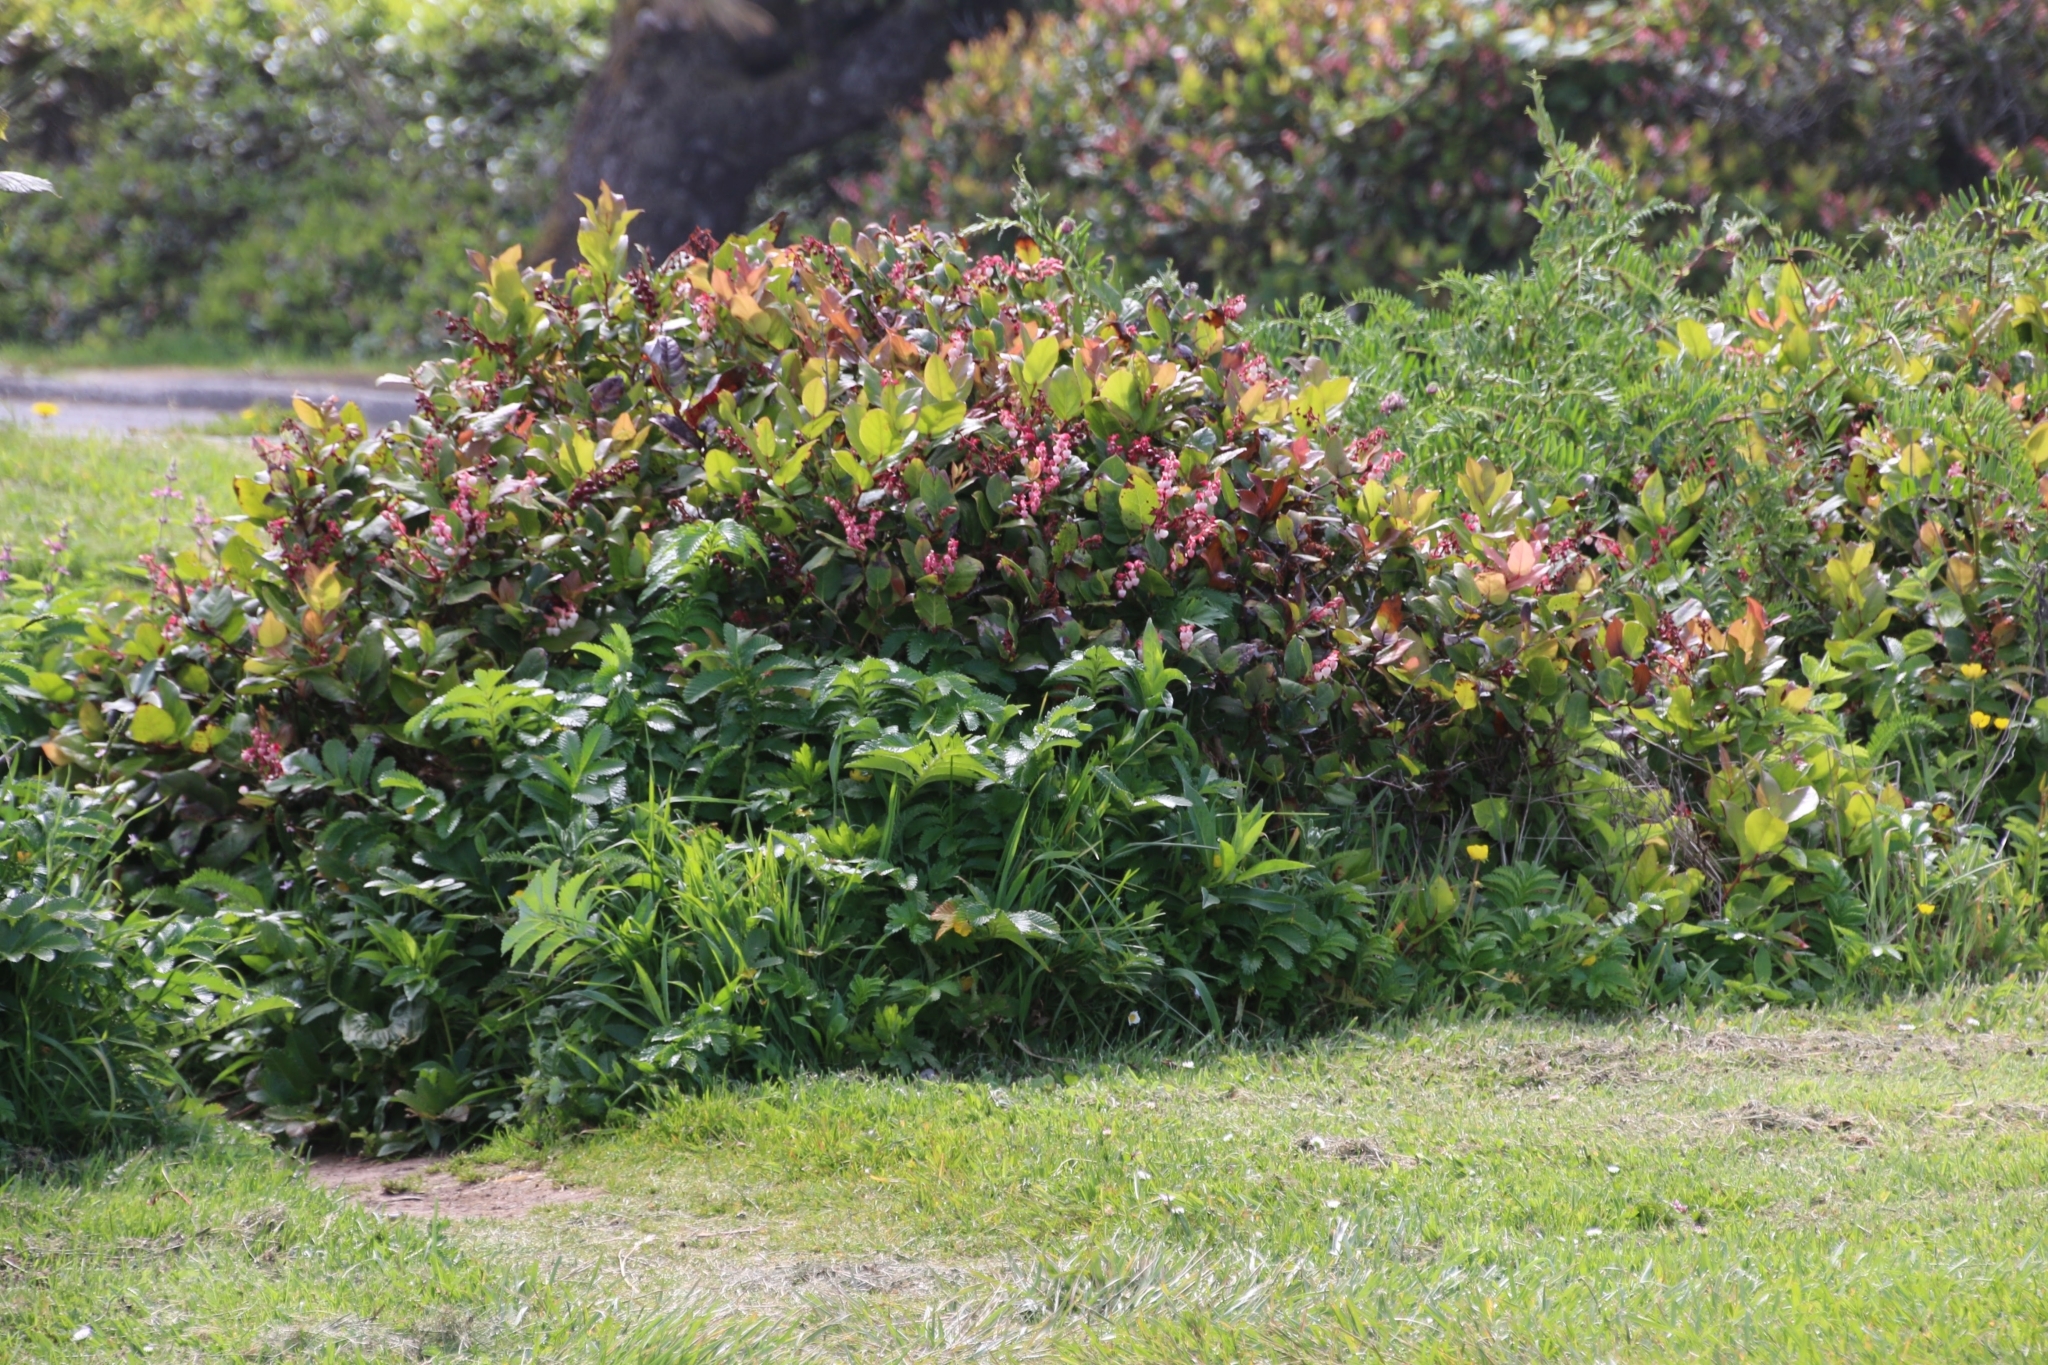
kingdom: Plantae
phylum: Tracheophyta
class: Magnoliopsida
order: Ericales
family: Ericaceae
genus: Gaultheria
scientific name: Gaultheria shallon
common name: Shallon
